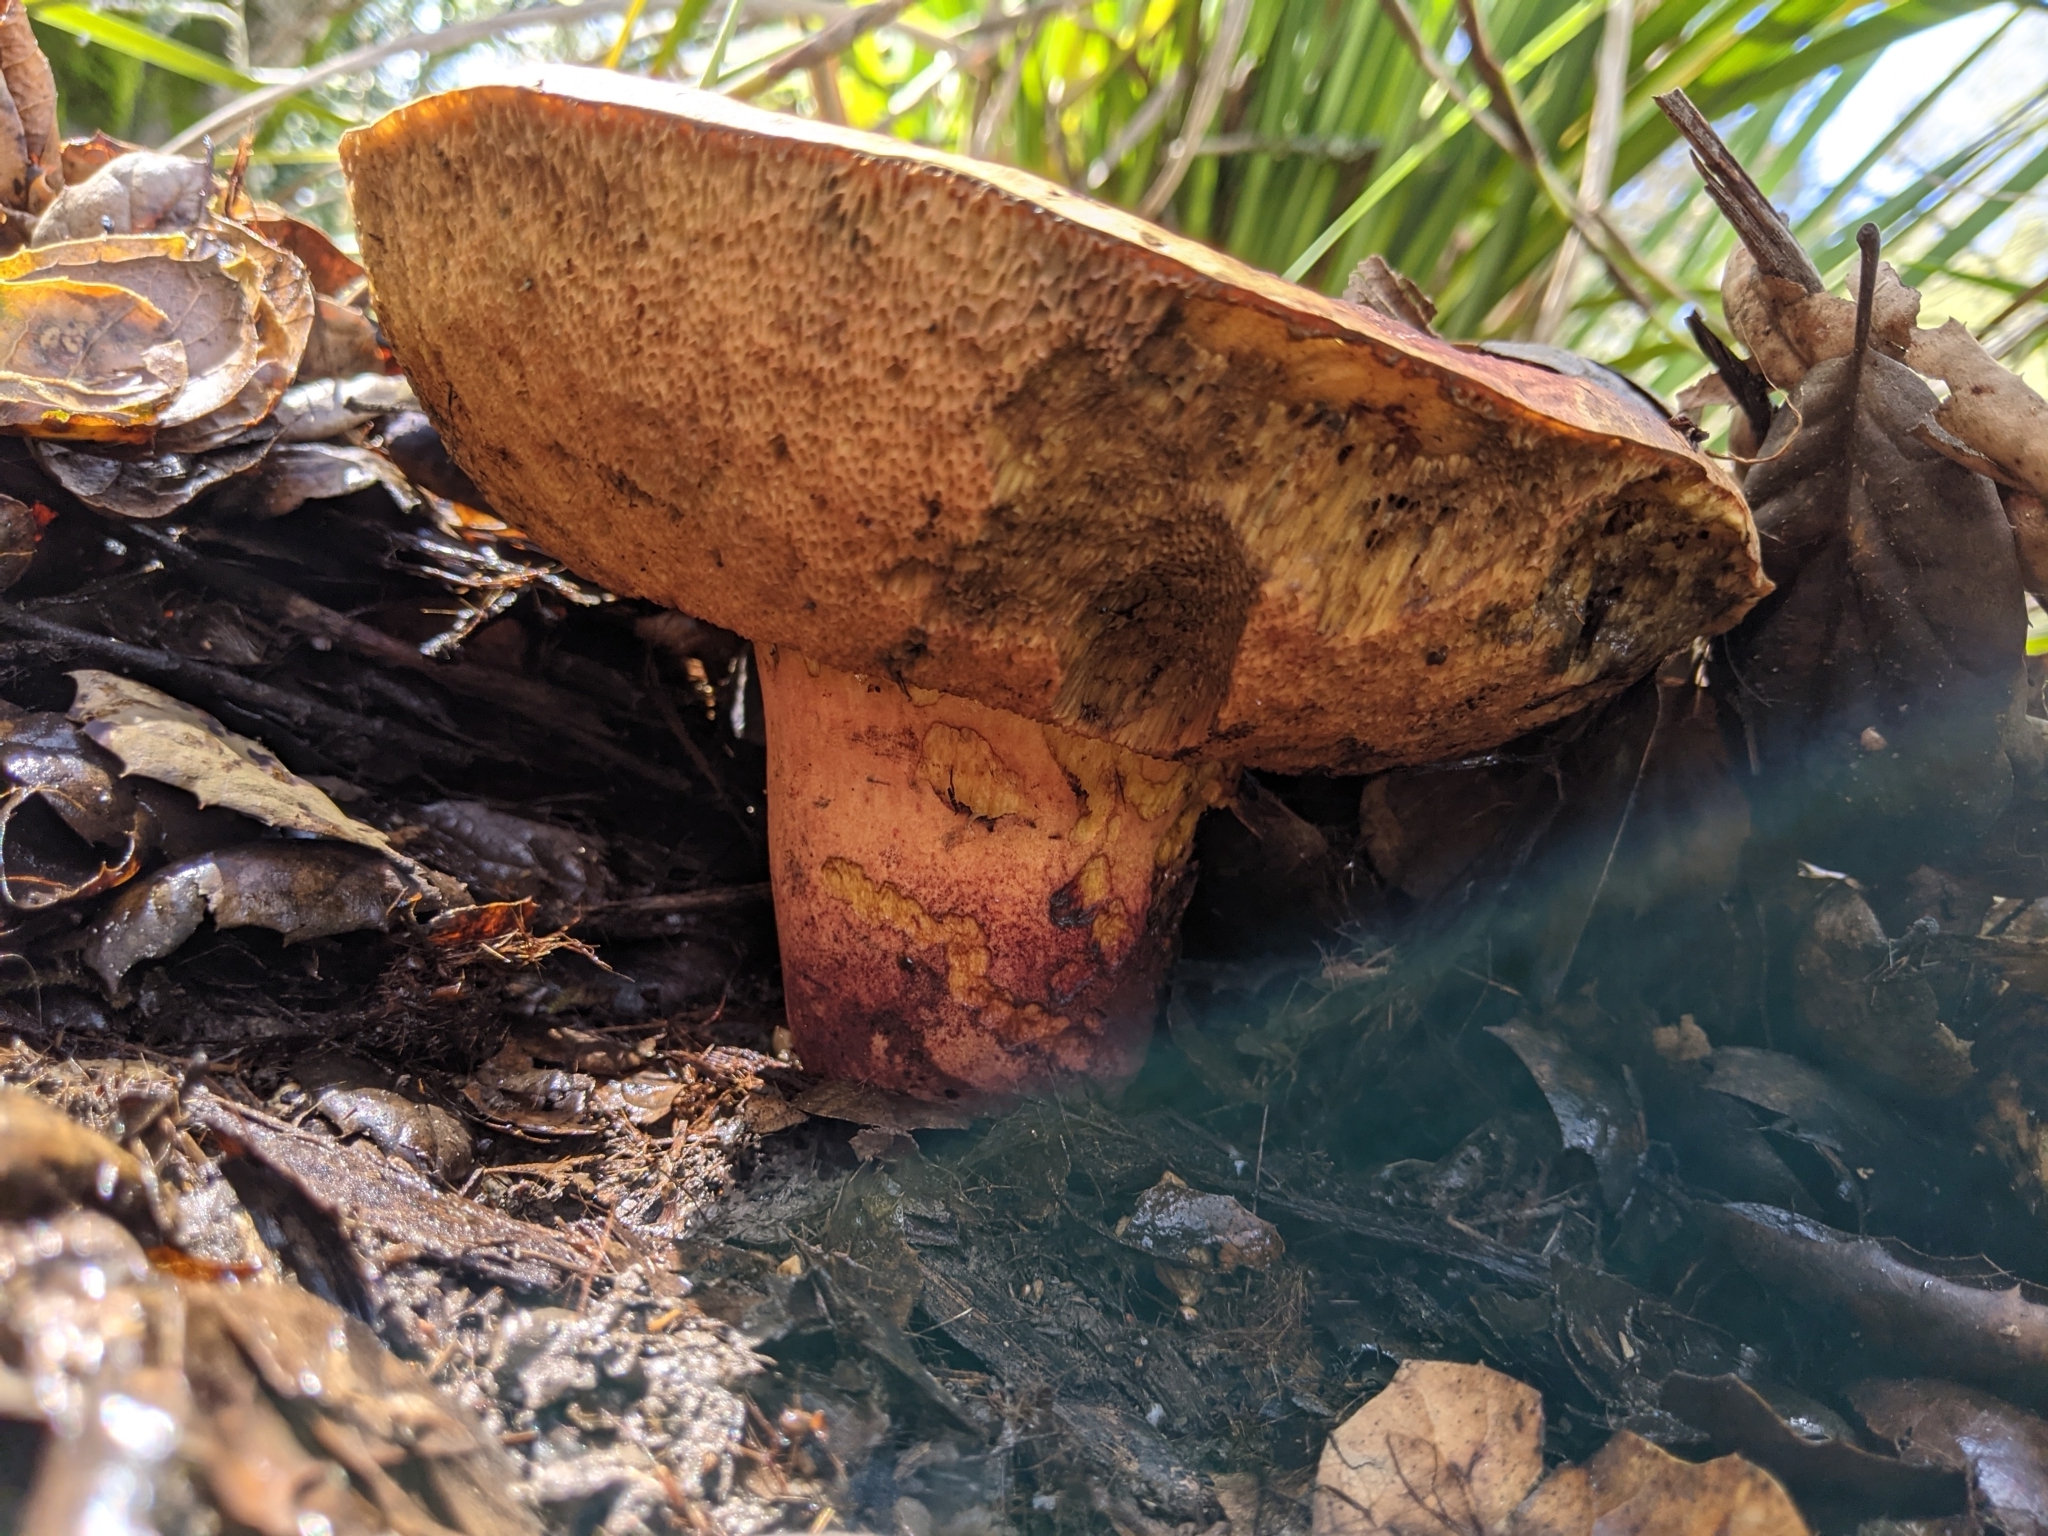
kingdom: Fungi
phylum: Basidiomycota
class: Agaricomycetes
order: Boletales
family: Boletaceae
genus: Suillellus
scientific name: Suillellus amygdalinus
